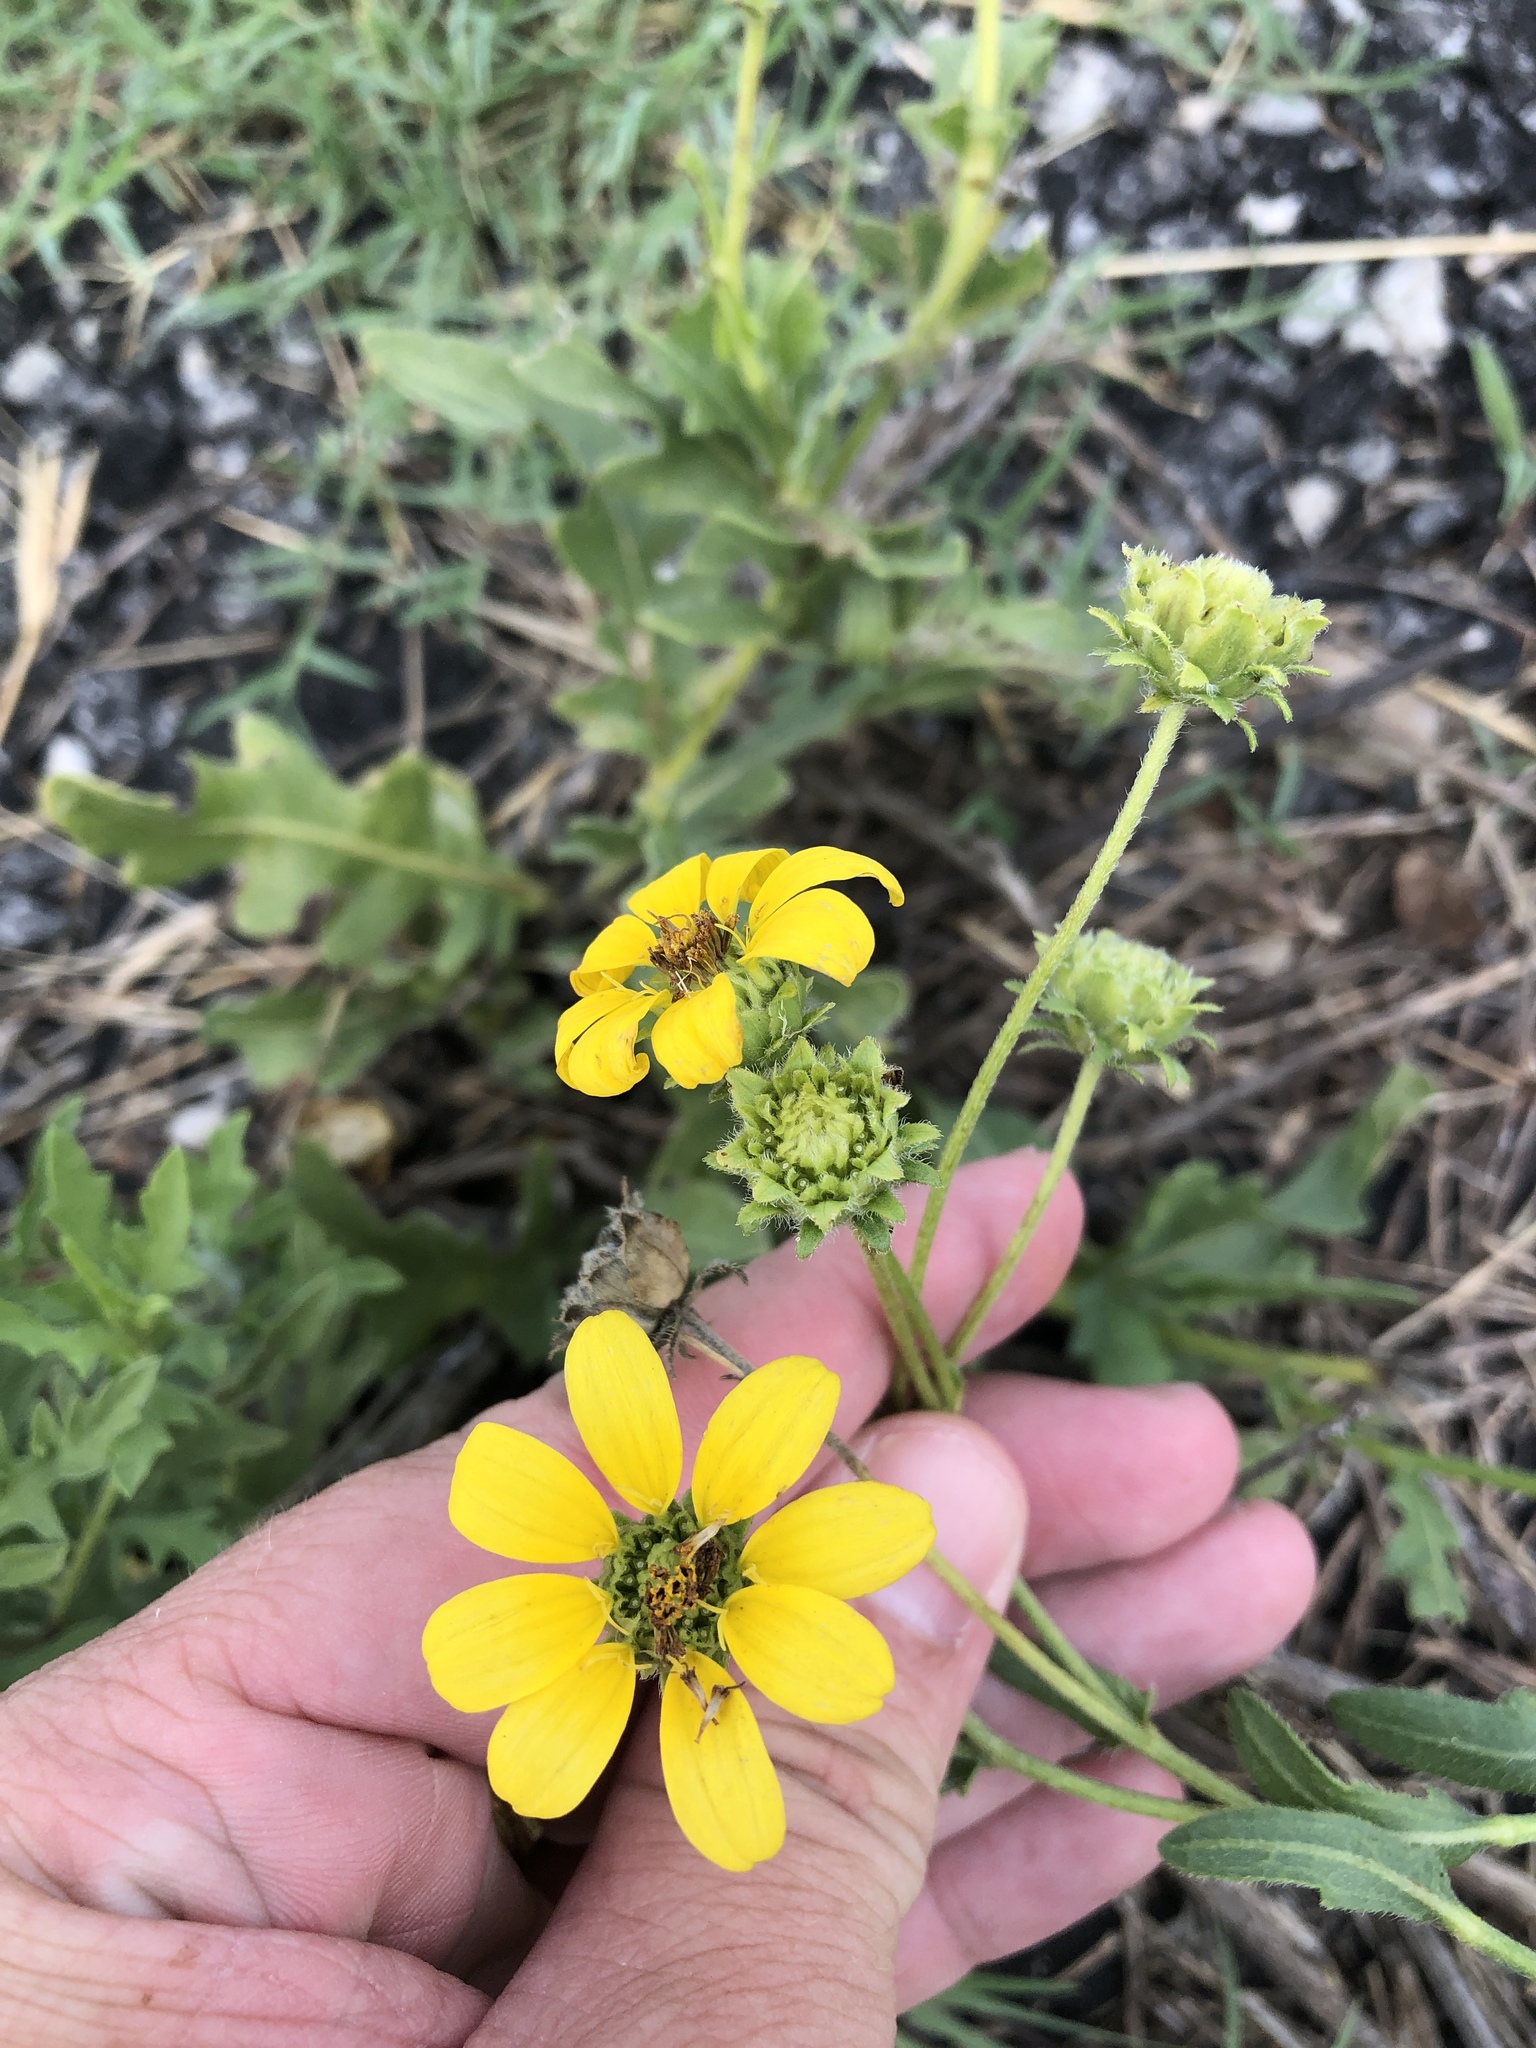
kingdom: Plantae
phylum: Tracheophyta
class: Magnoliopsida
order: Asterales
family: Asteraceae
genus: Engelmannia
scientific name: Engelmannia peristenia
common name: Engelmann's daisy
